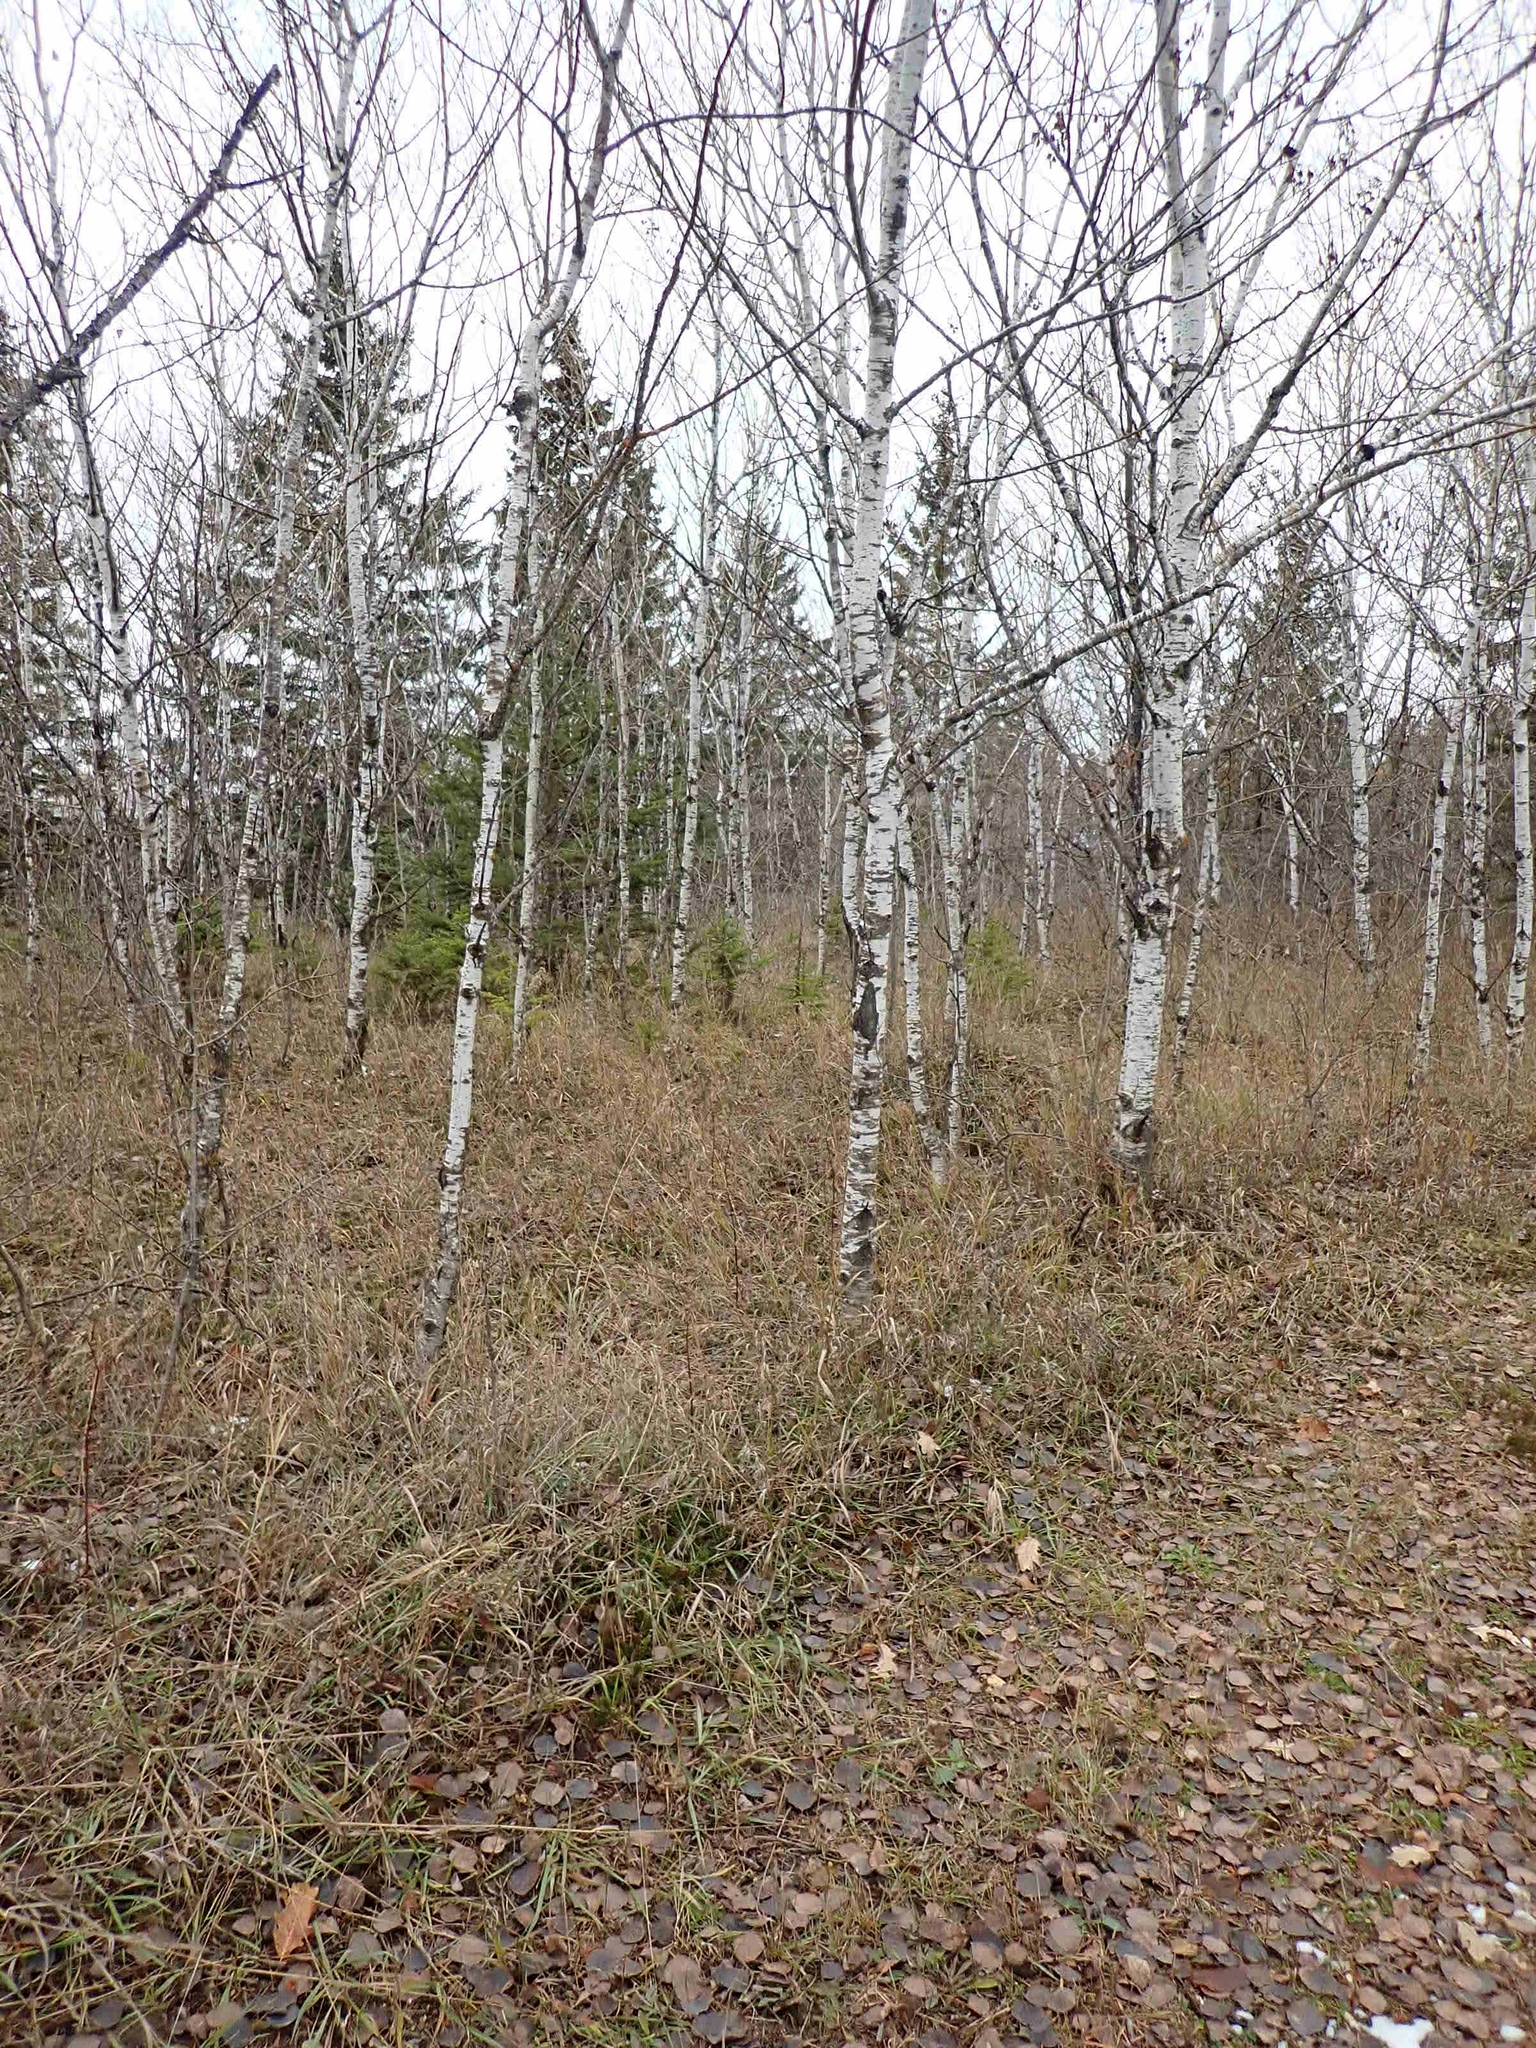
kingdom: Plantae
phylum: Tracheophyta
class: Magnoliopsida
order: Malpighiales
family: Salicaceae
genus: Populus
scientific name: Populus tremuloides
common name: Quaking aspen
